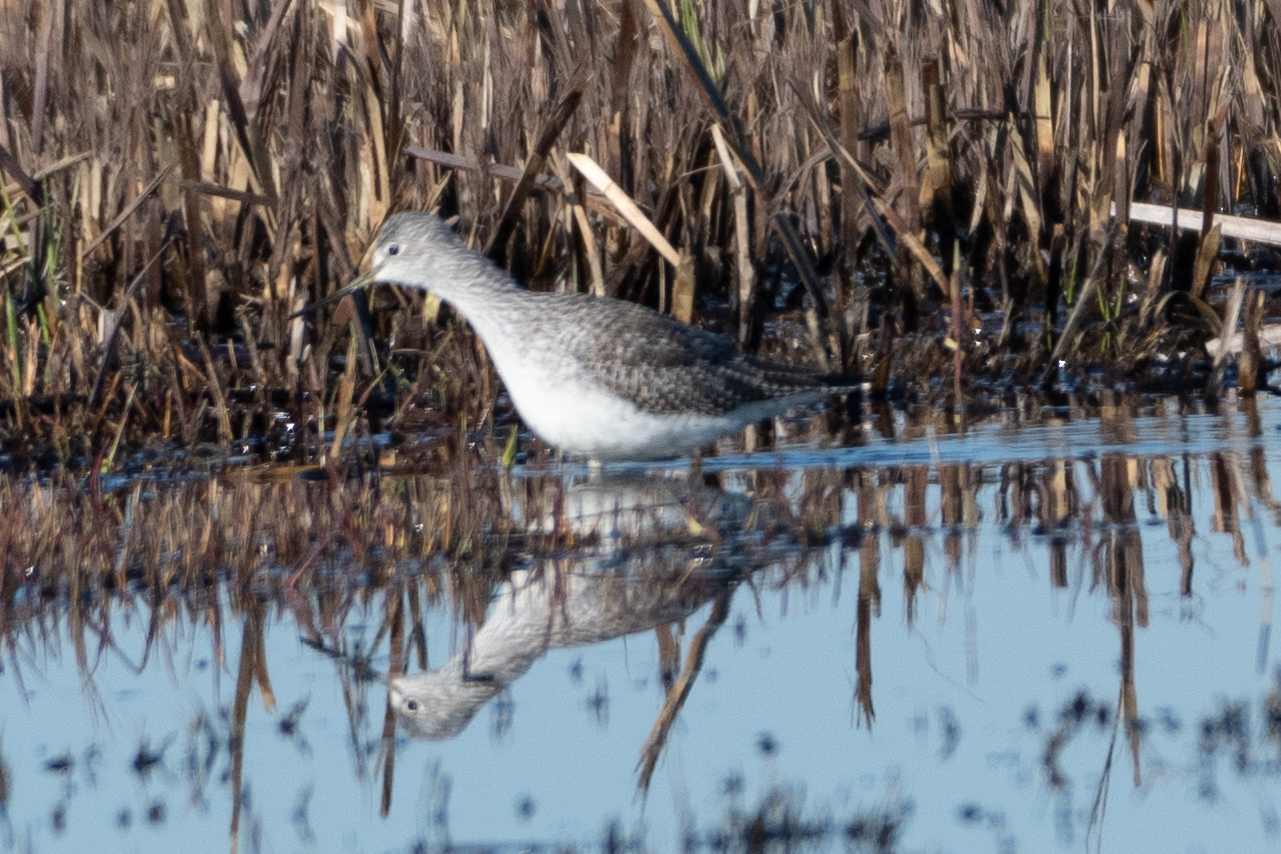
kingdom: Animalia
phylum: Chordata
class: Aves
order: Charadriiformes
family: Scolopacidae
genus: Tringa
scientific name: Tringa melanoleuca
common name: Greater yellowlegs
